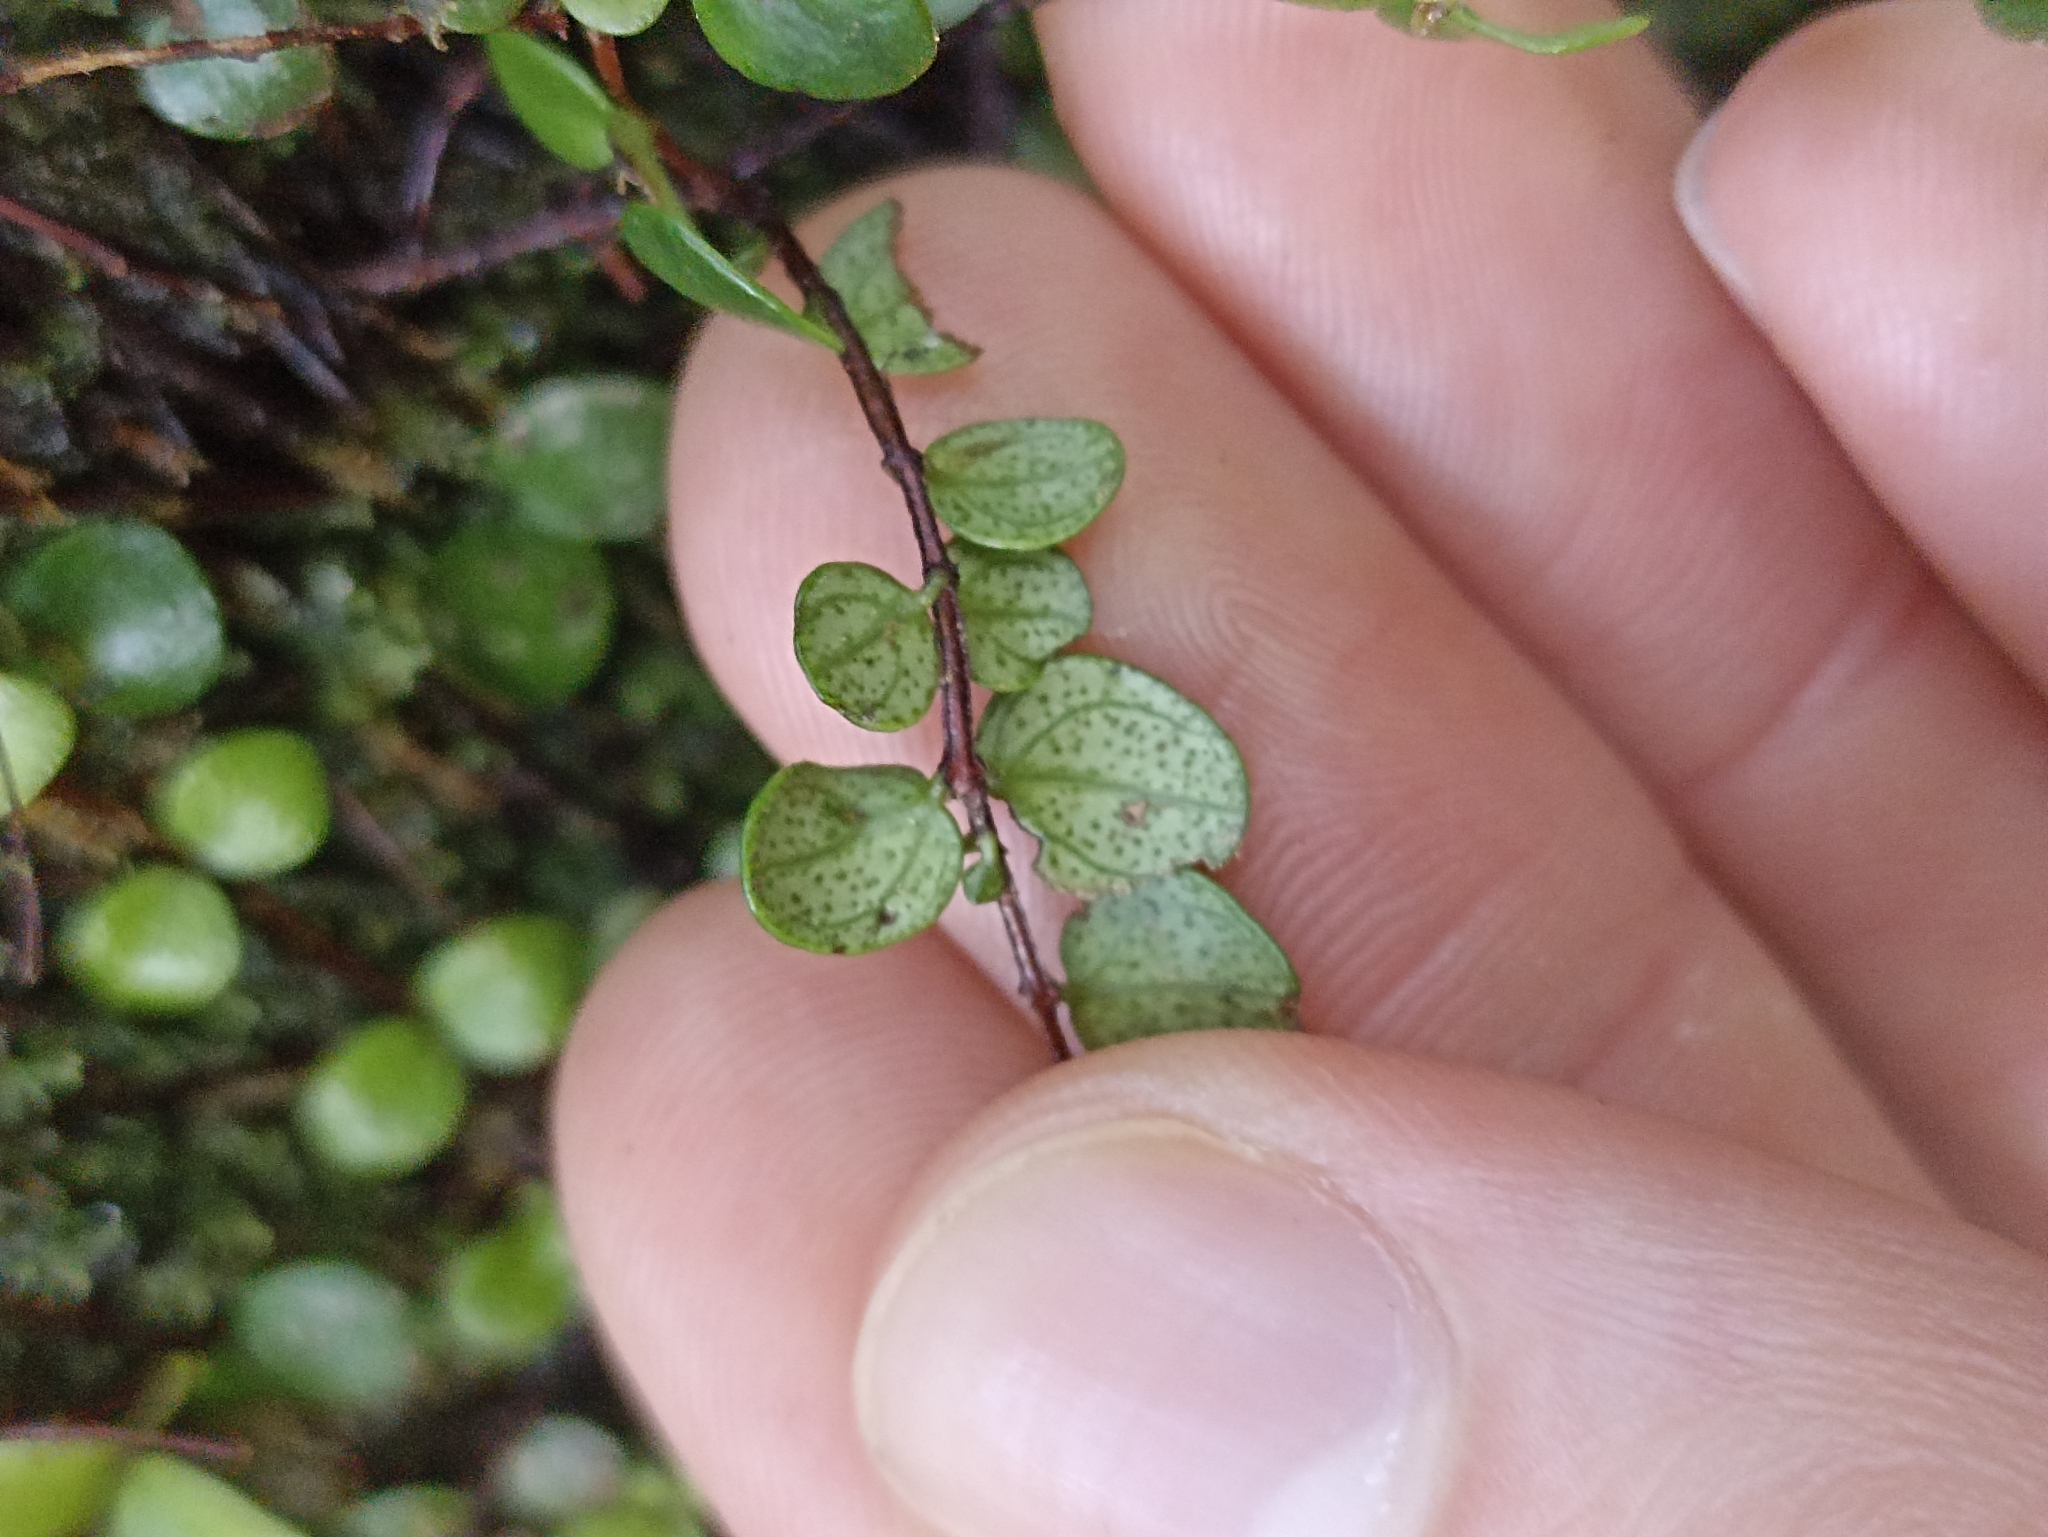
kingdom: Plantae
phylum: Tracheophyta
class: Magnoliopsida
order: Myrtales
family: Myrtaceae
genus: Metrosideros
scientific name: Metrosideros perforata
